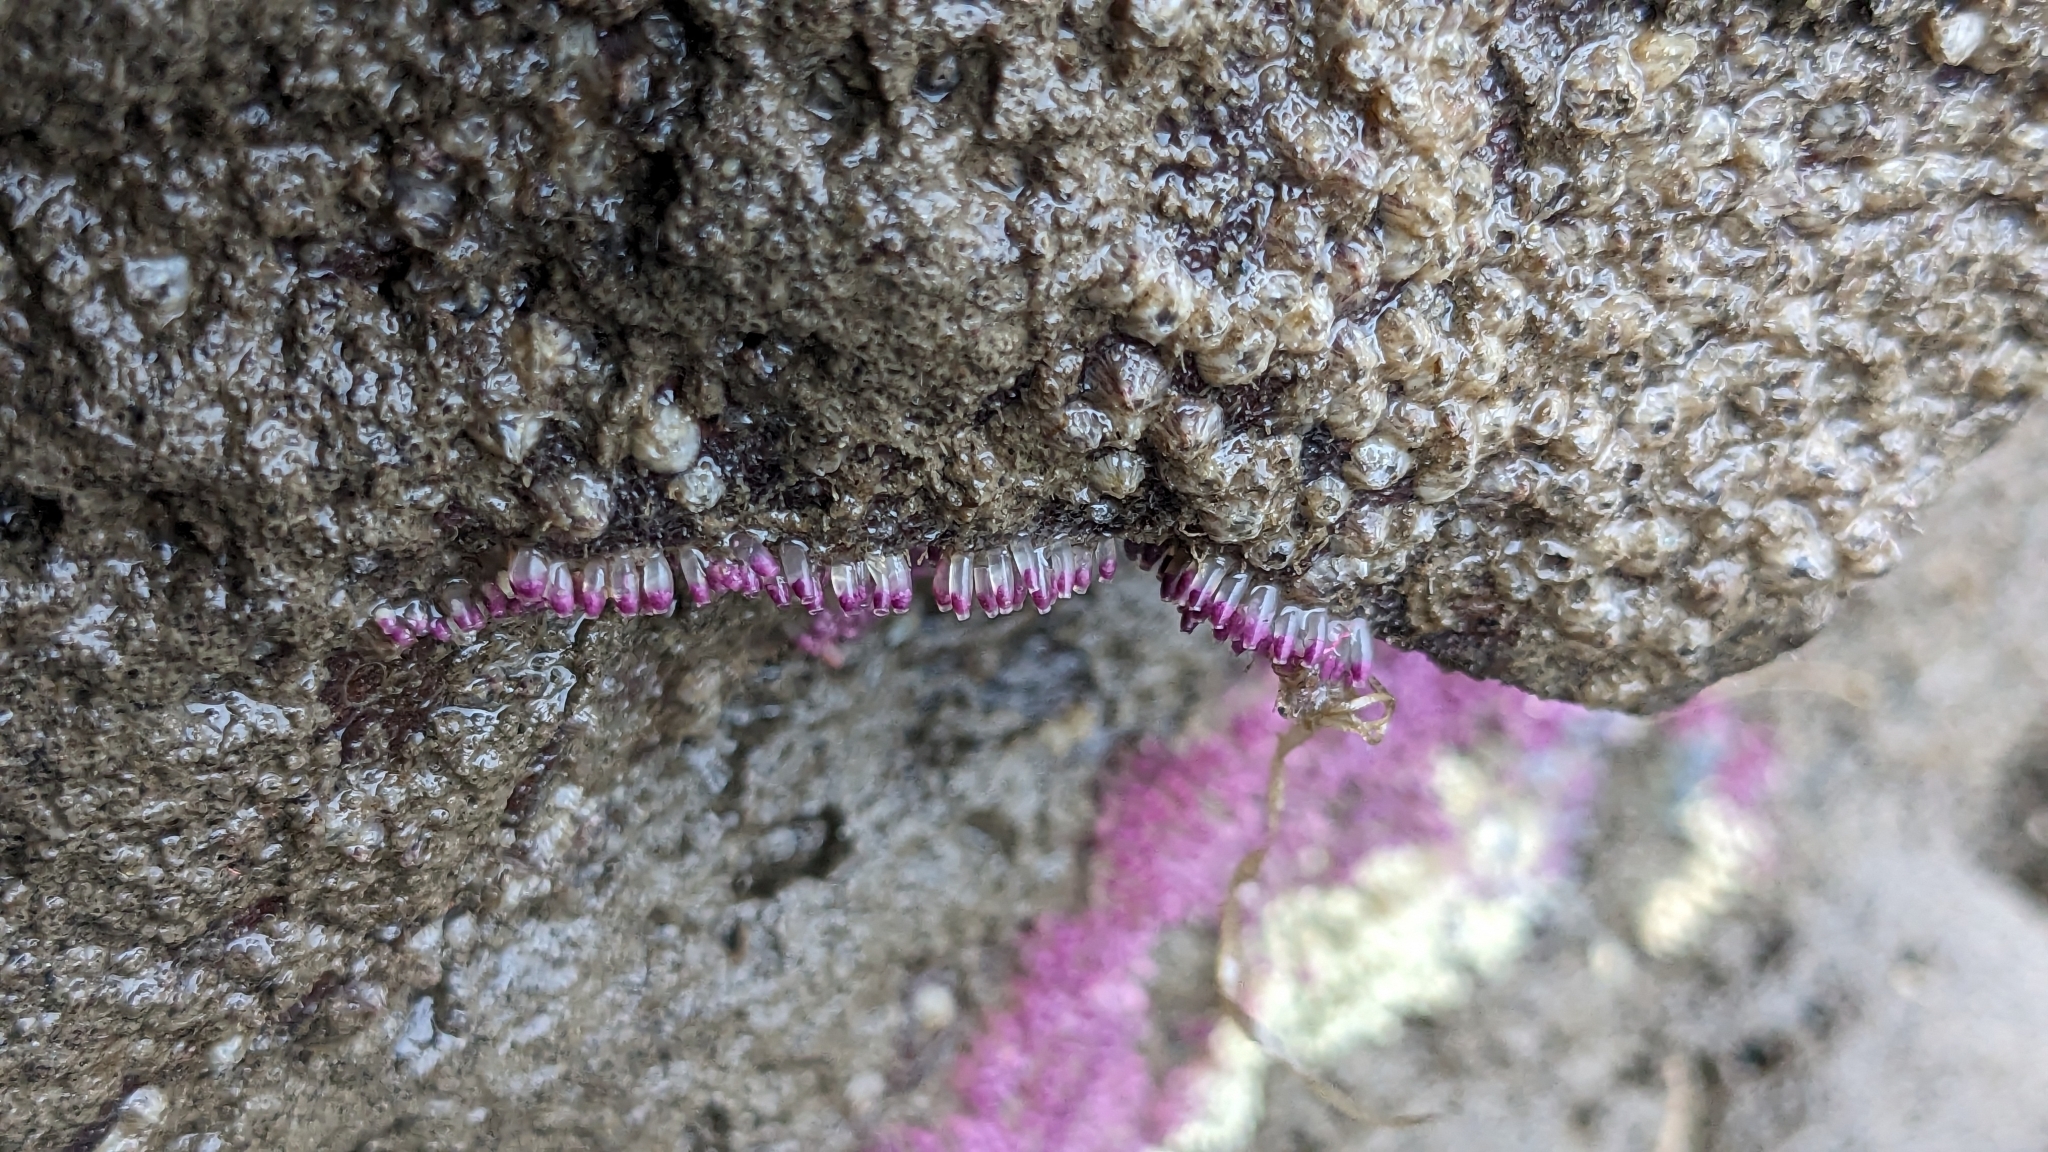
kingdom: Animalia
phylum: Mollusca
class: Gastropoda
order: Neogastropoda
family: Muricidae
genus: Indothais
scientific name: Indothais blanfordi
